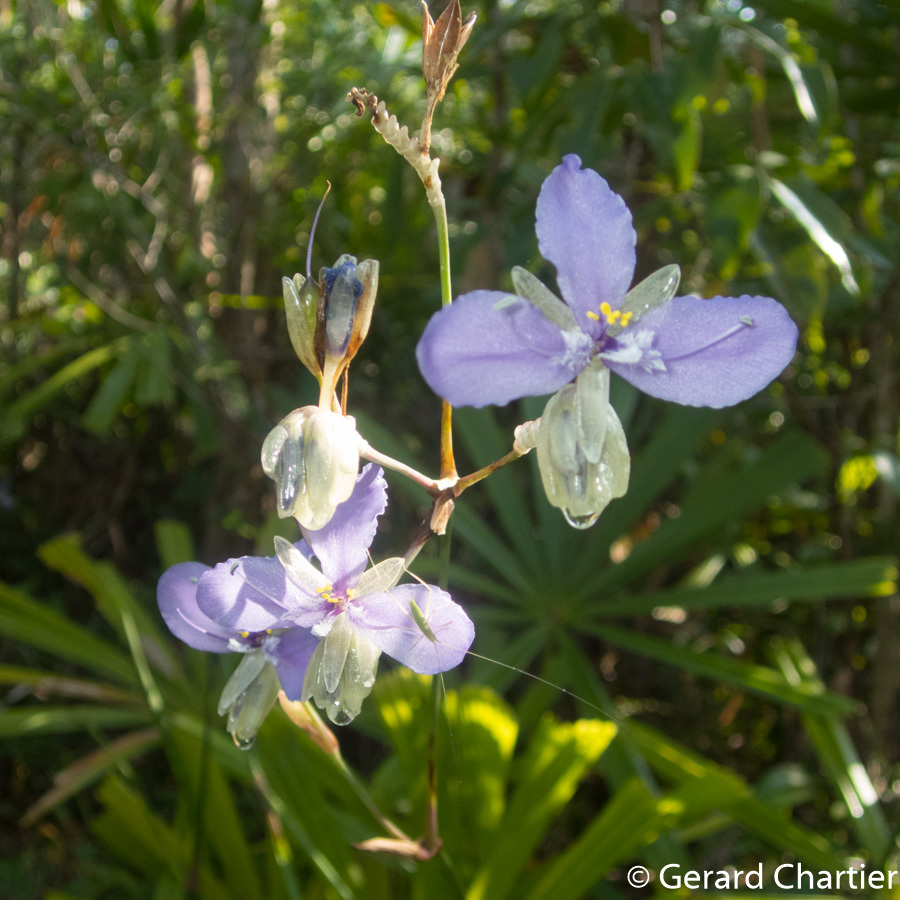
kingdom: Plantae
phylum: Tracheophyta
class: Liliopsida
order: Commelinales
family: Commelinaceae
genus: Murdannia
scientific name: Murdannia macrocarpa
